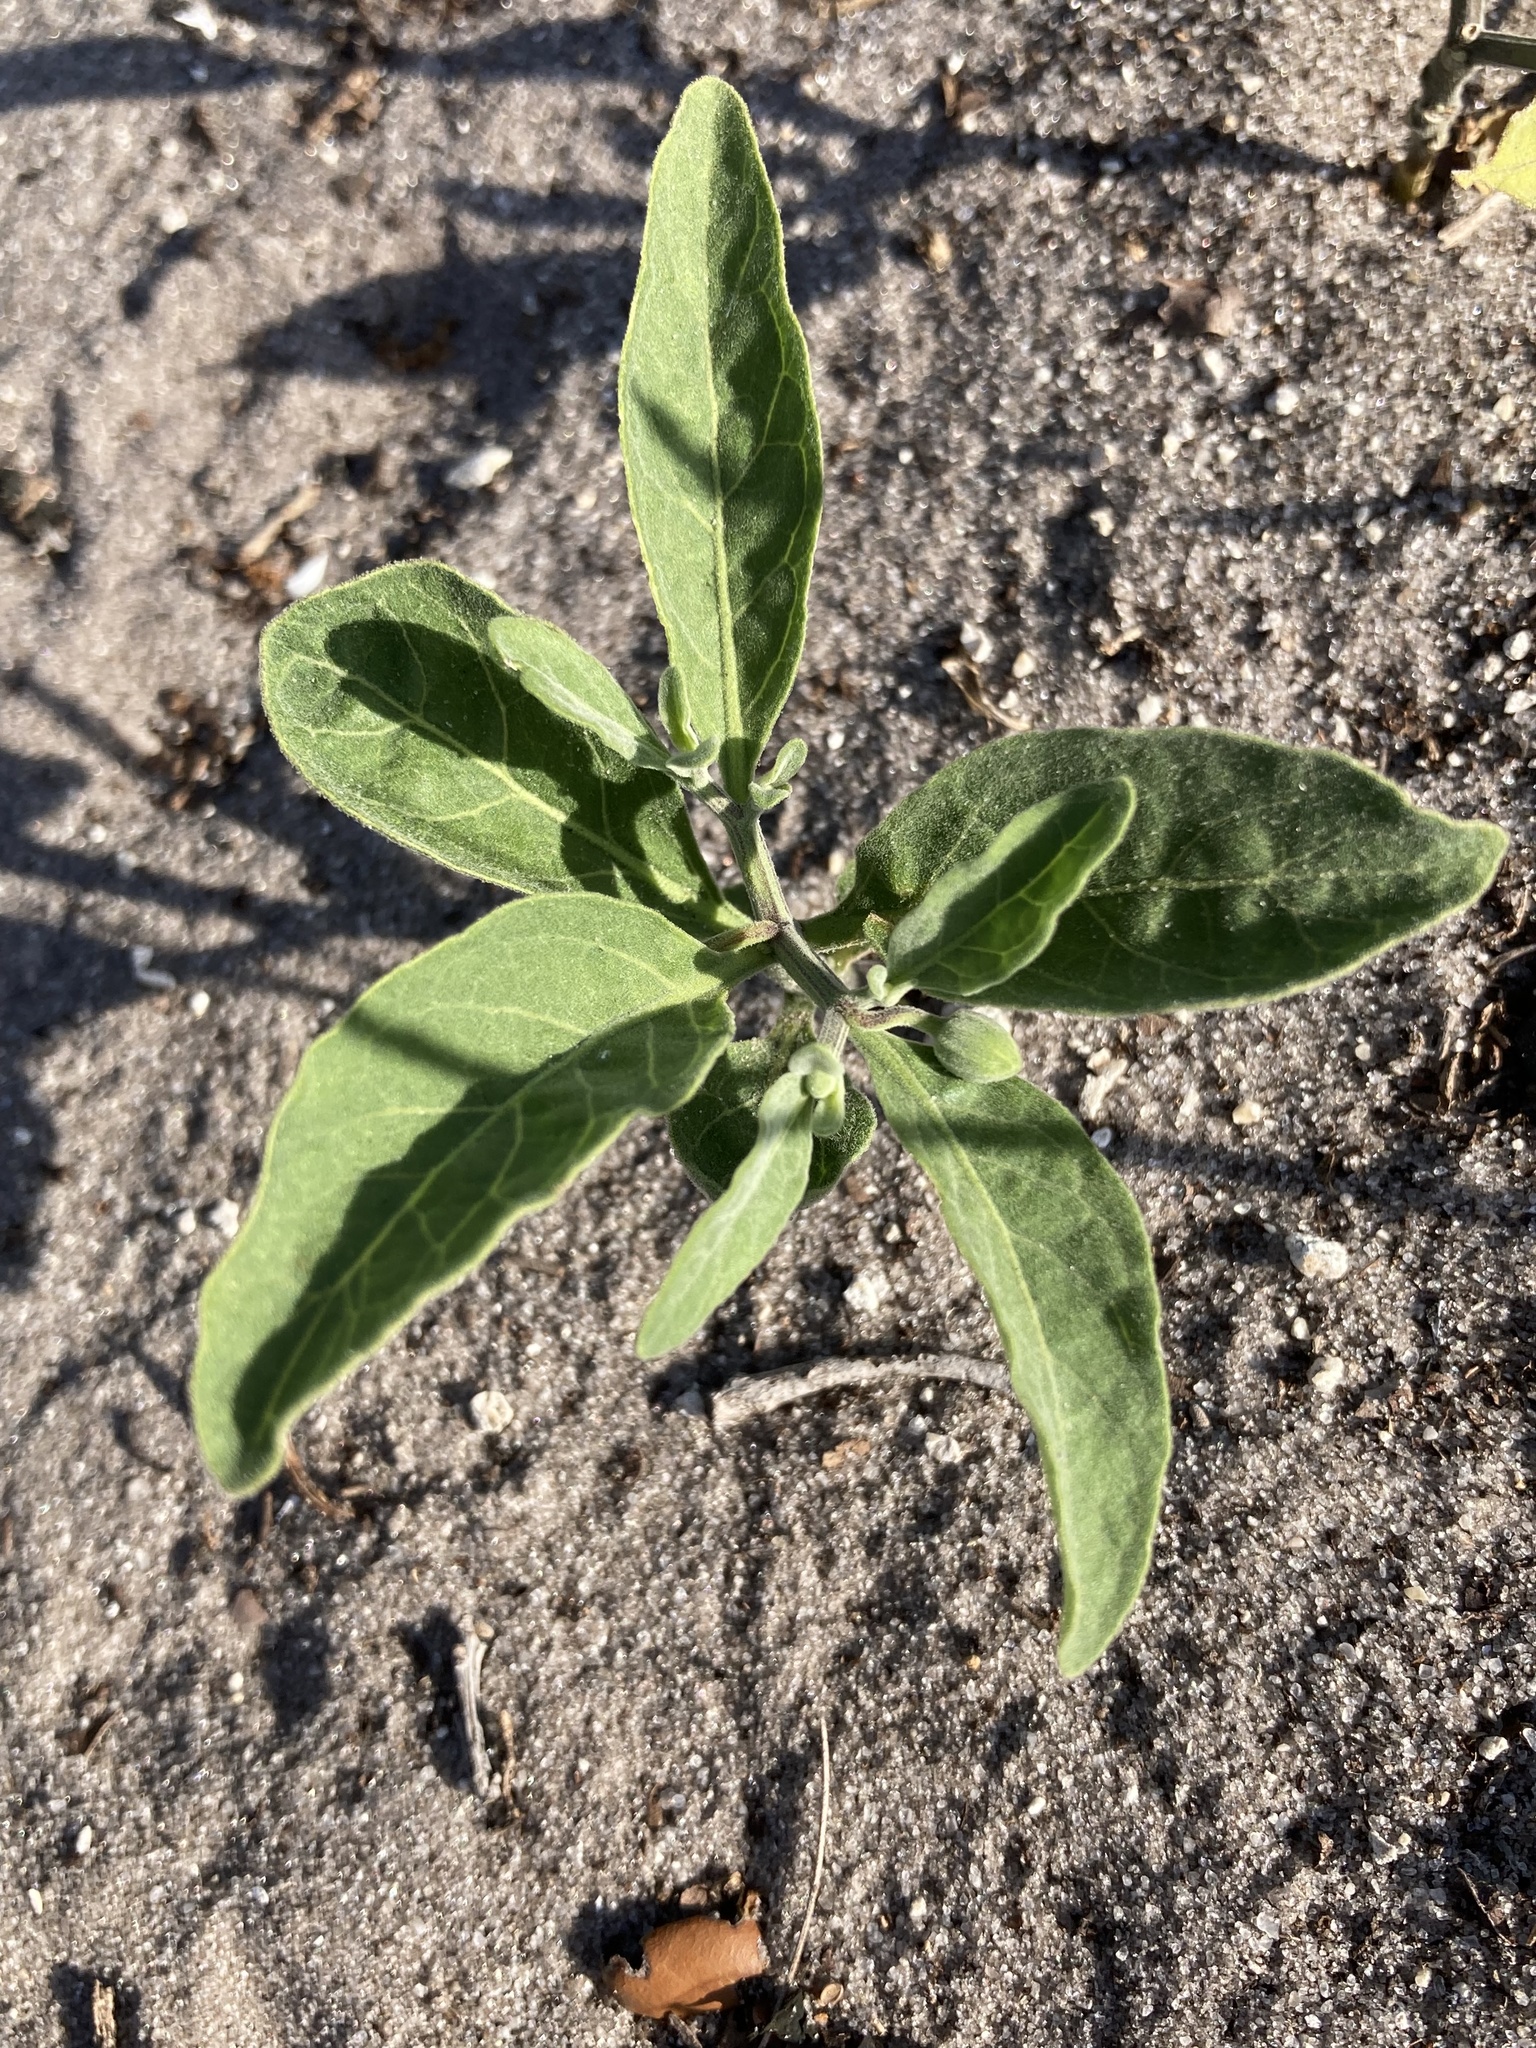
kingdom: Plantae
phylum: Tracheophyta
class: Magnoliopsida
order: Solanales
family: Solanaceae
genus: Physalis
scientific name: Physalis walteri
